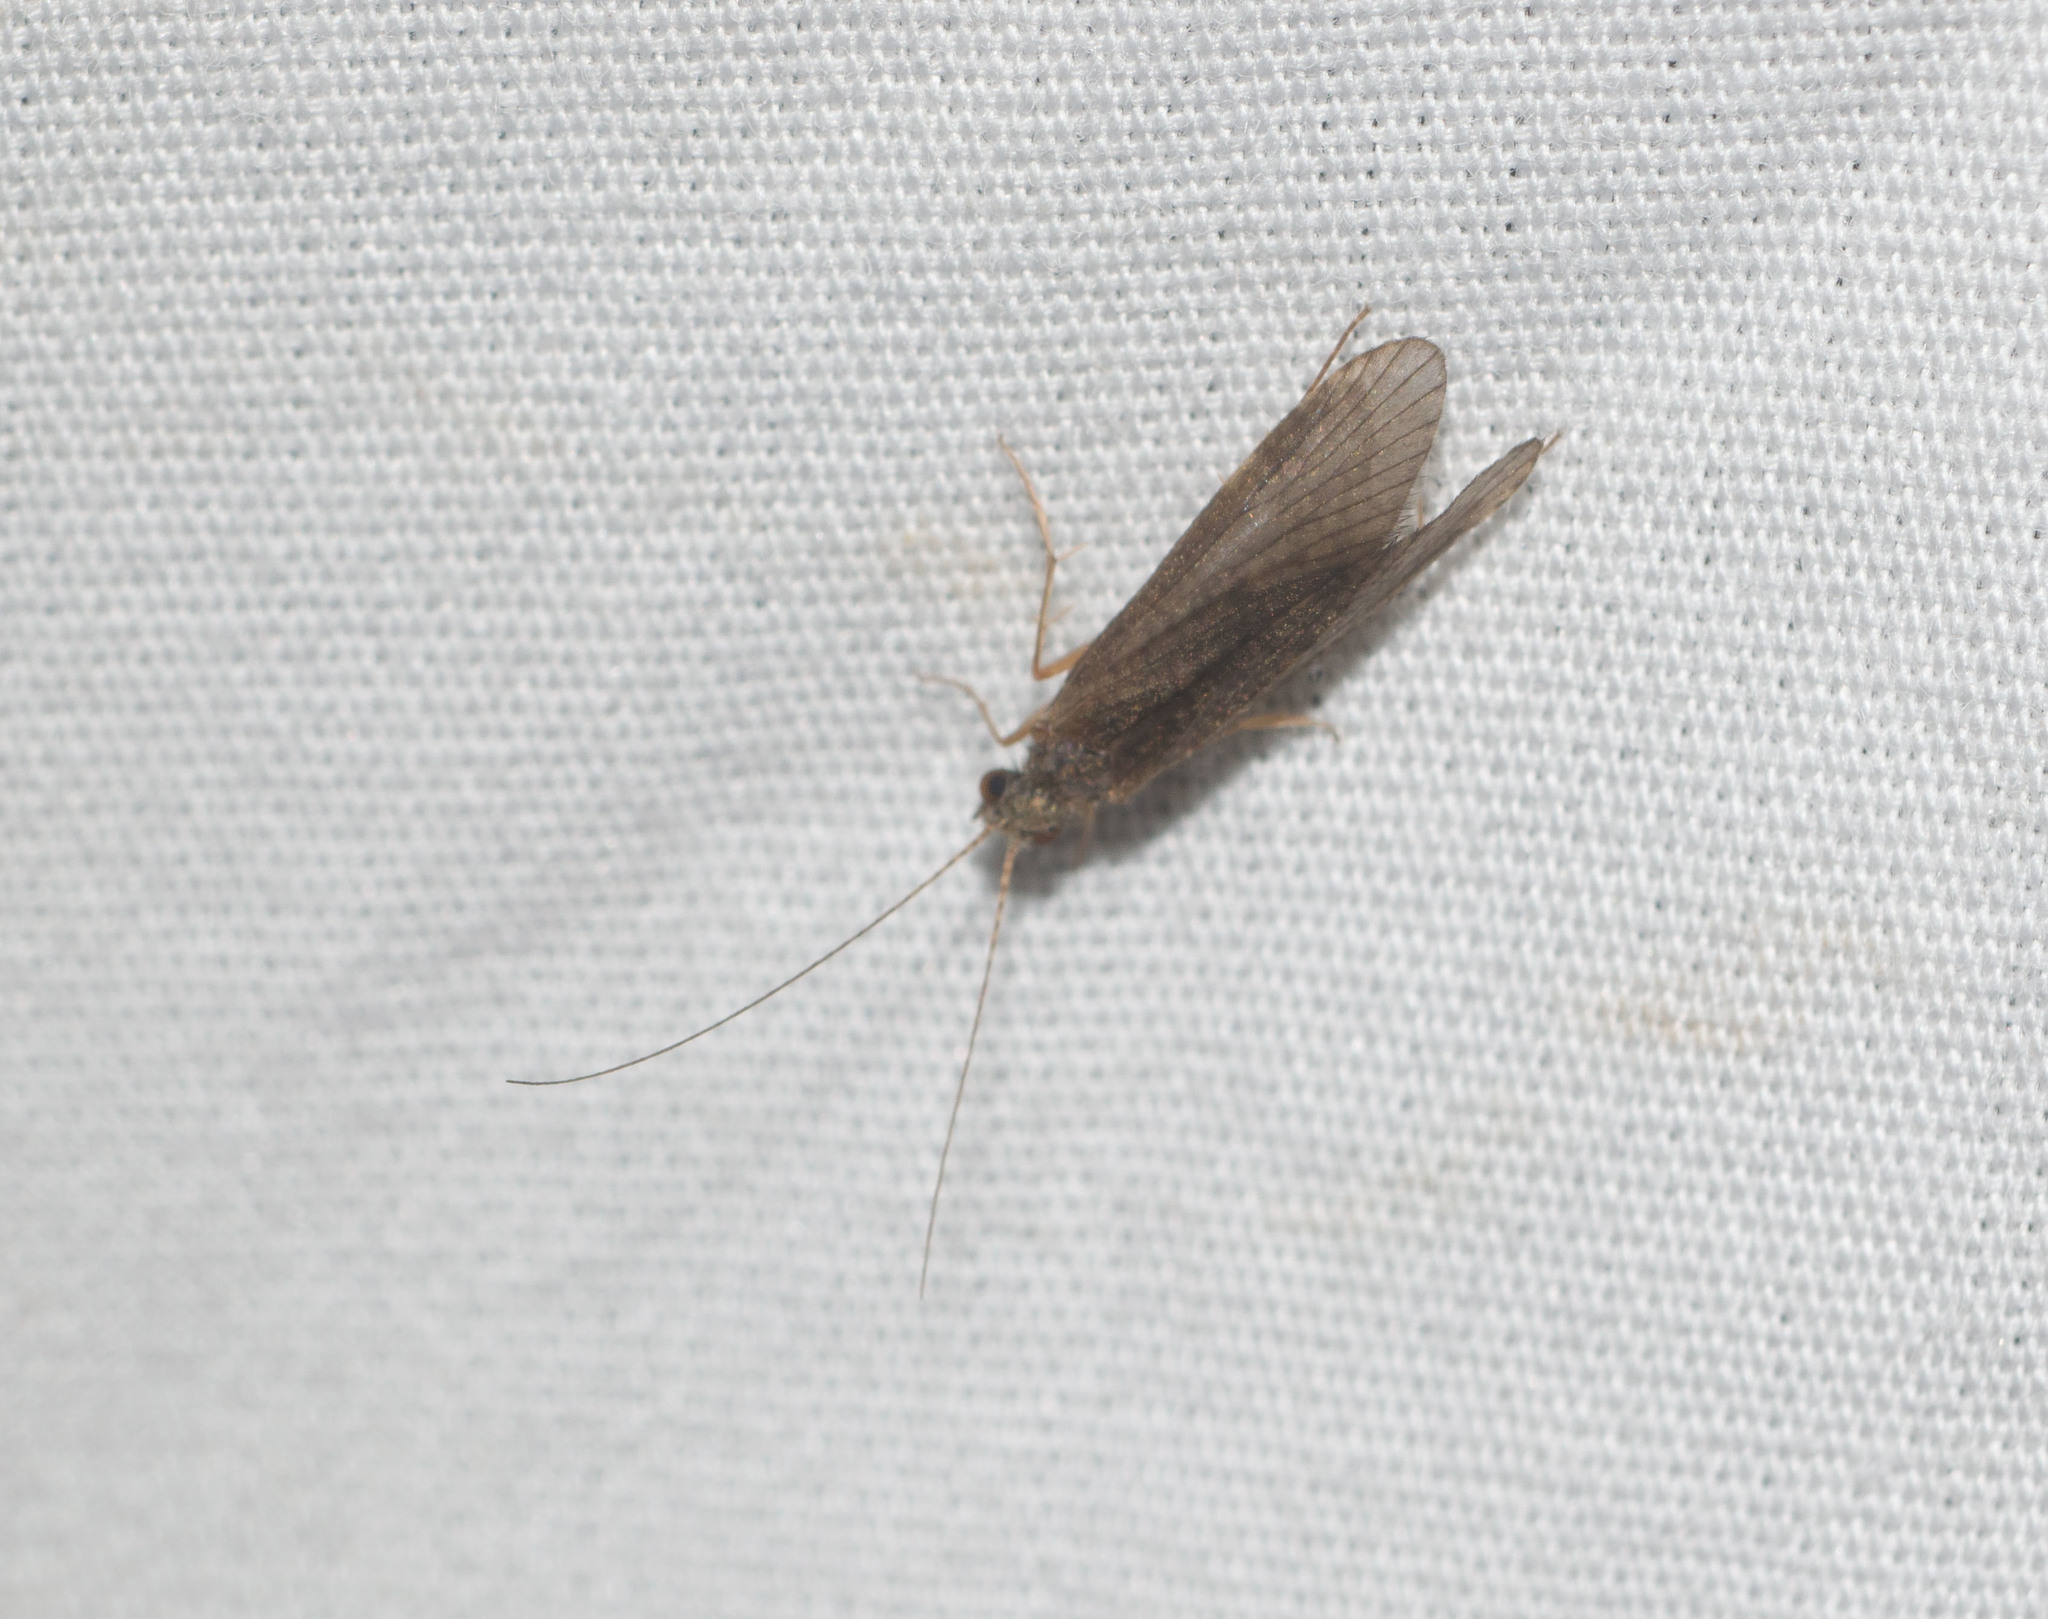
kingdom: Animalia
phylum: Arthropoda
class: Insecta
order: Trichoptera
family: Hydropsychidae
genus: Cheumatopsyche
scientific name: Cheumatopsyche analis
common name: Net-spinning caddisfly
